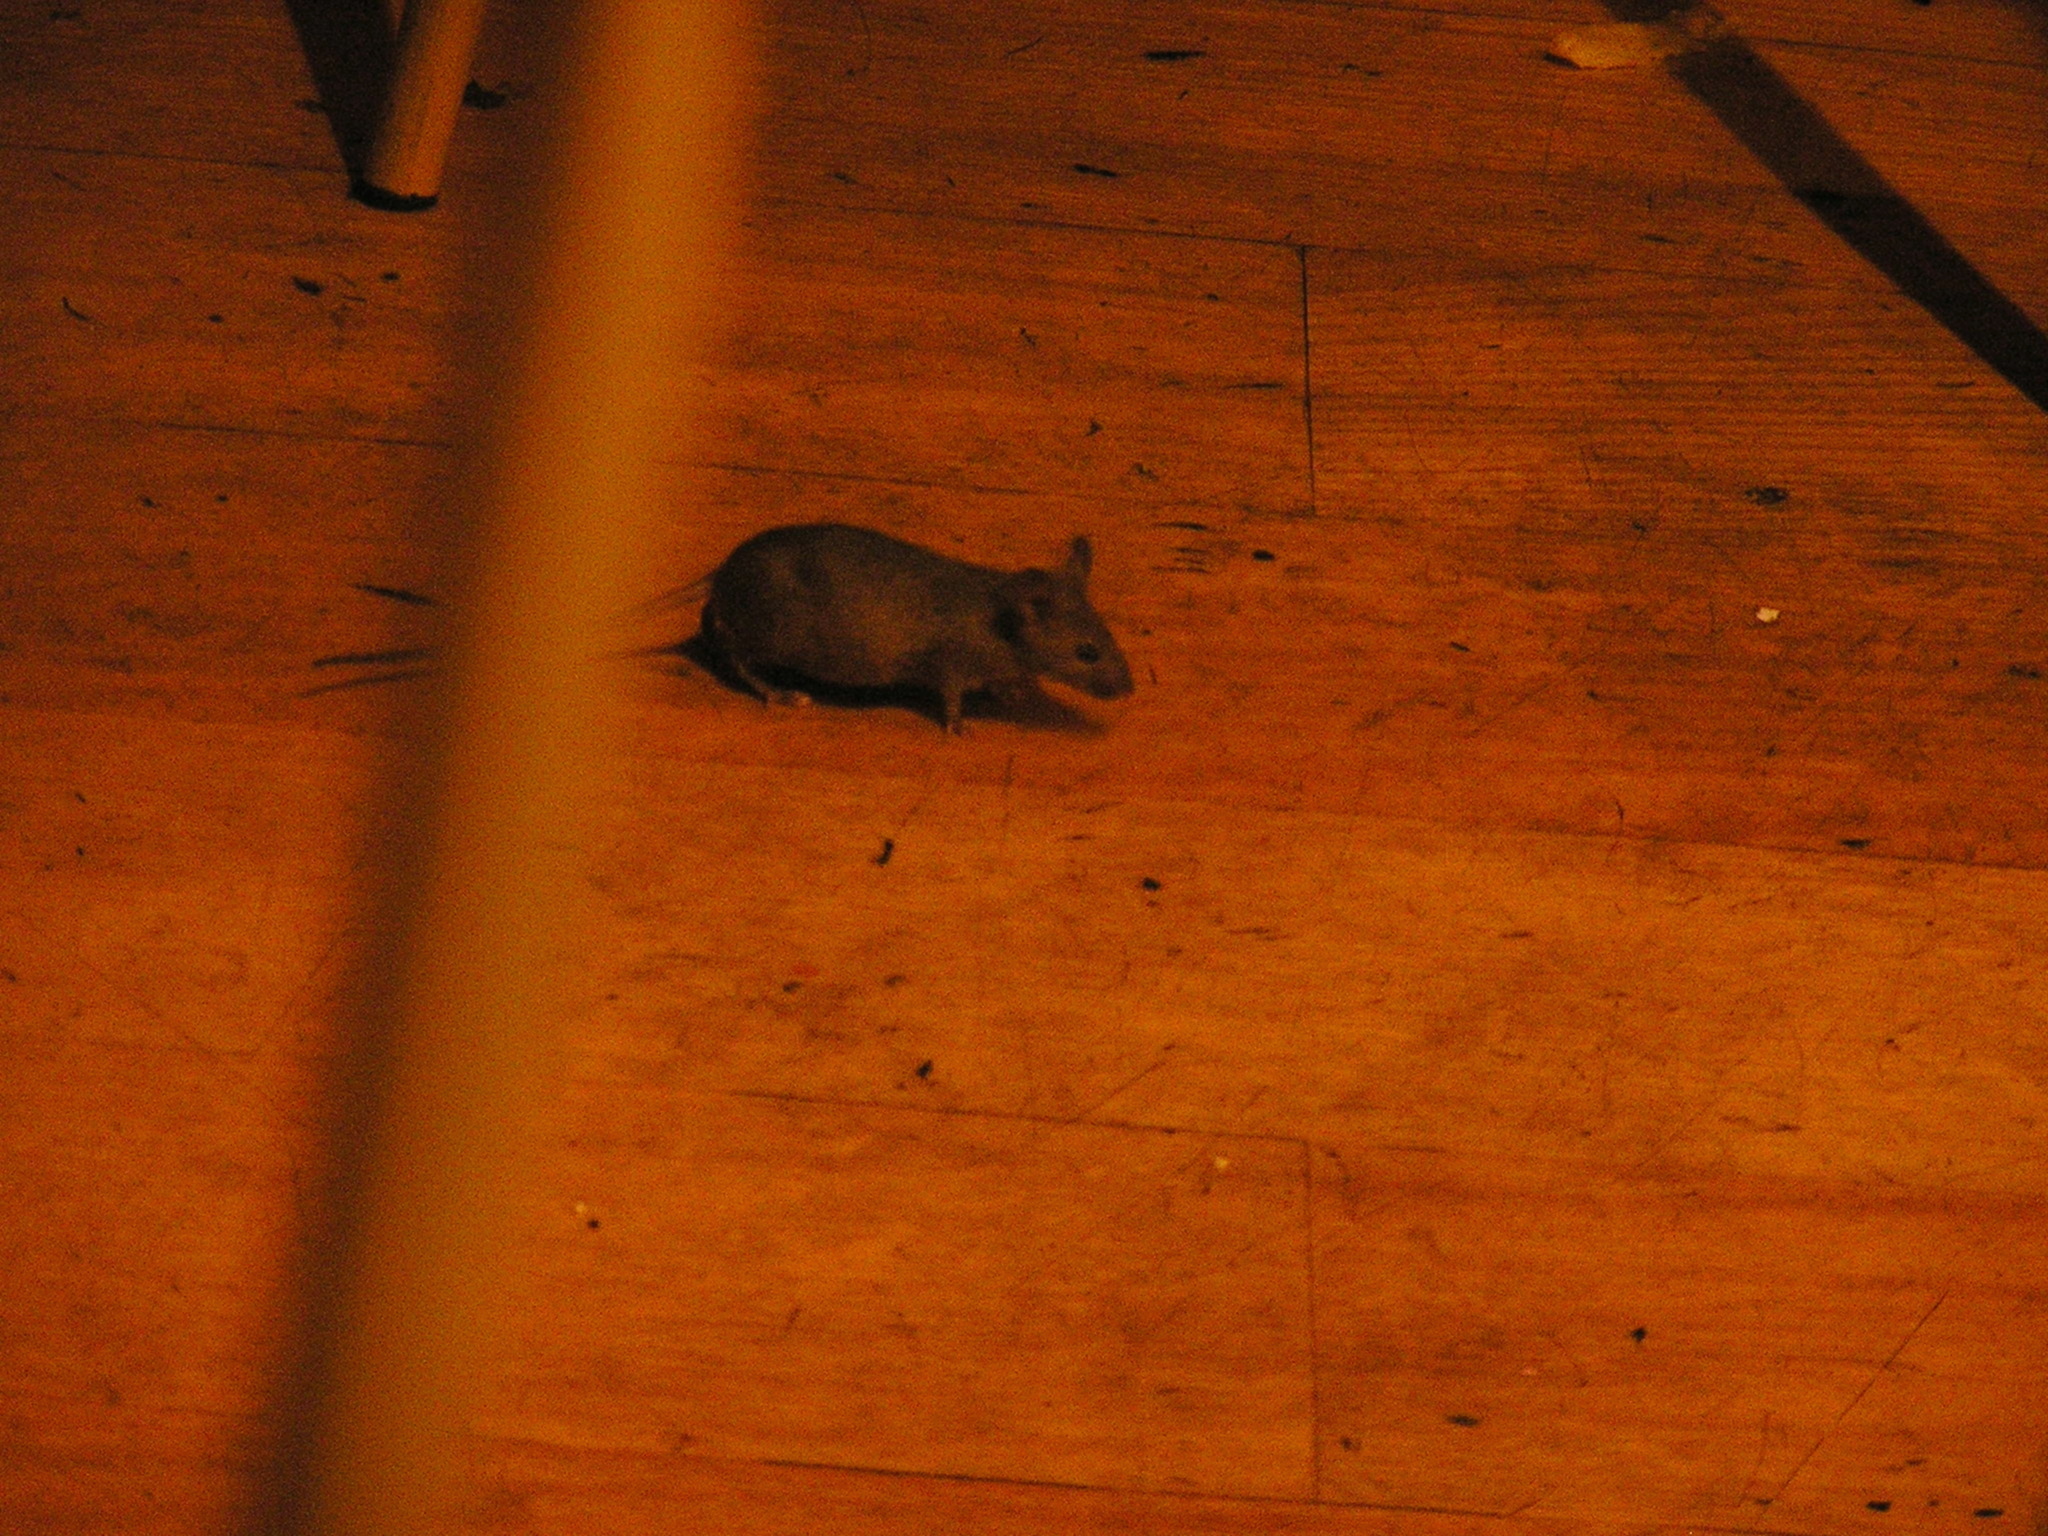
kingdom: Animalia
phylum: Chordata
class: Mammalia
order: Rodentia
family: Muridae
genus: Mus
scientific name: Mus musculus
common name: House mouse
